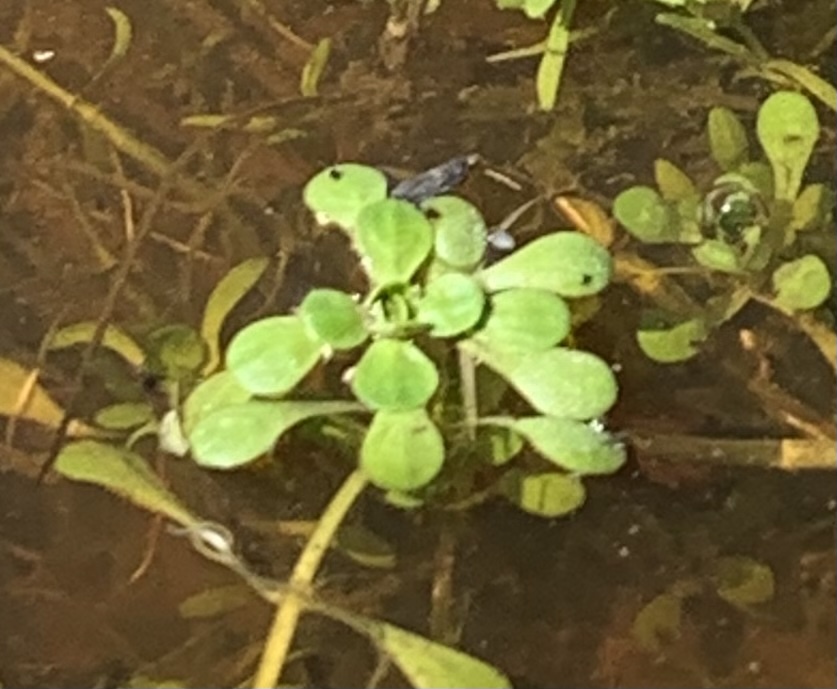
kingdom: Plantae
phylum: Tracheophyta
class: Magnoliopsida
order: Lamiales
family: Plantaginaceae
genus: Callitriche
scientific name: Callitriche heterophylla
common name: Two-headed water-starwort
